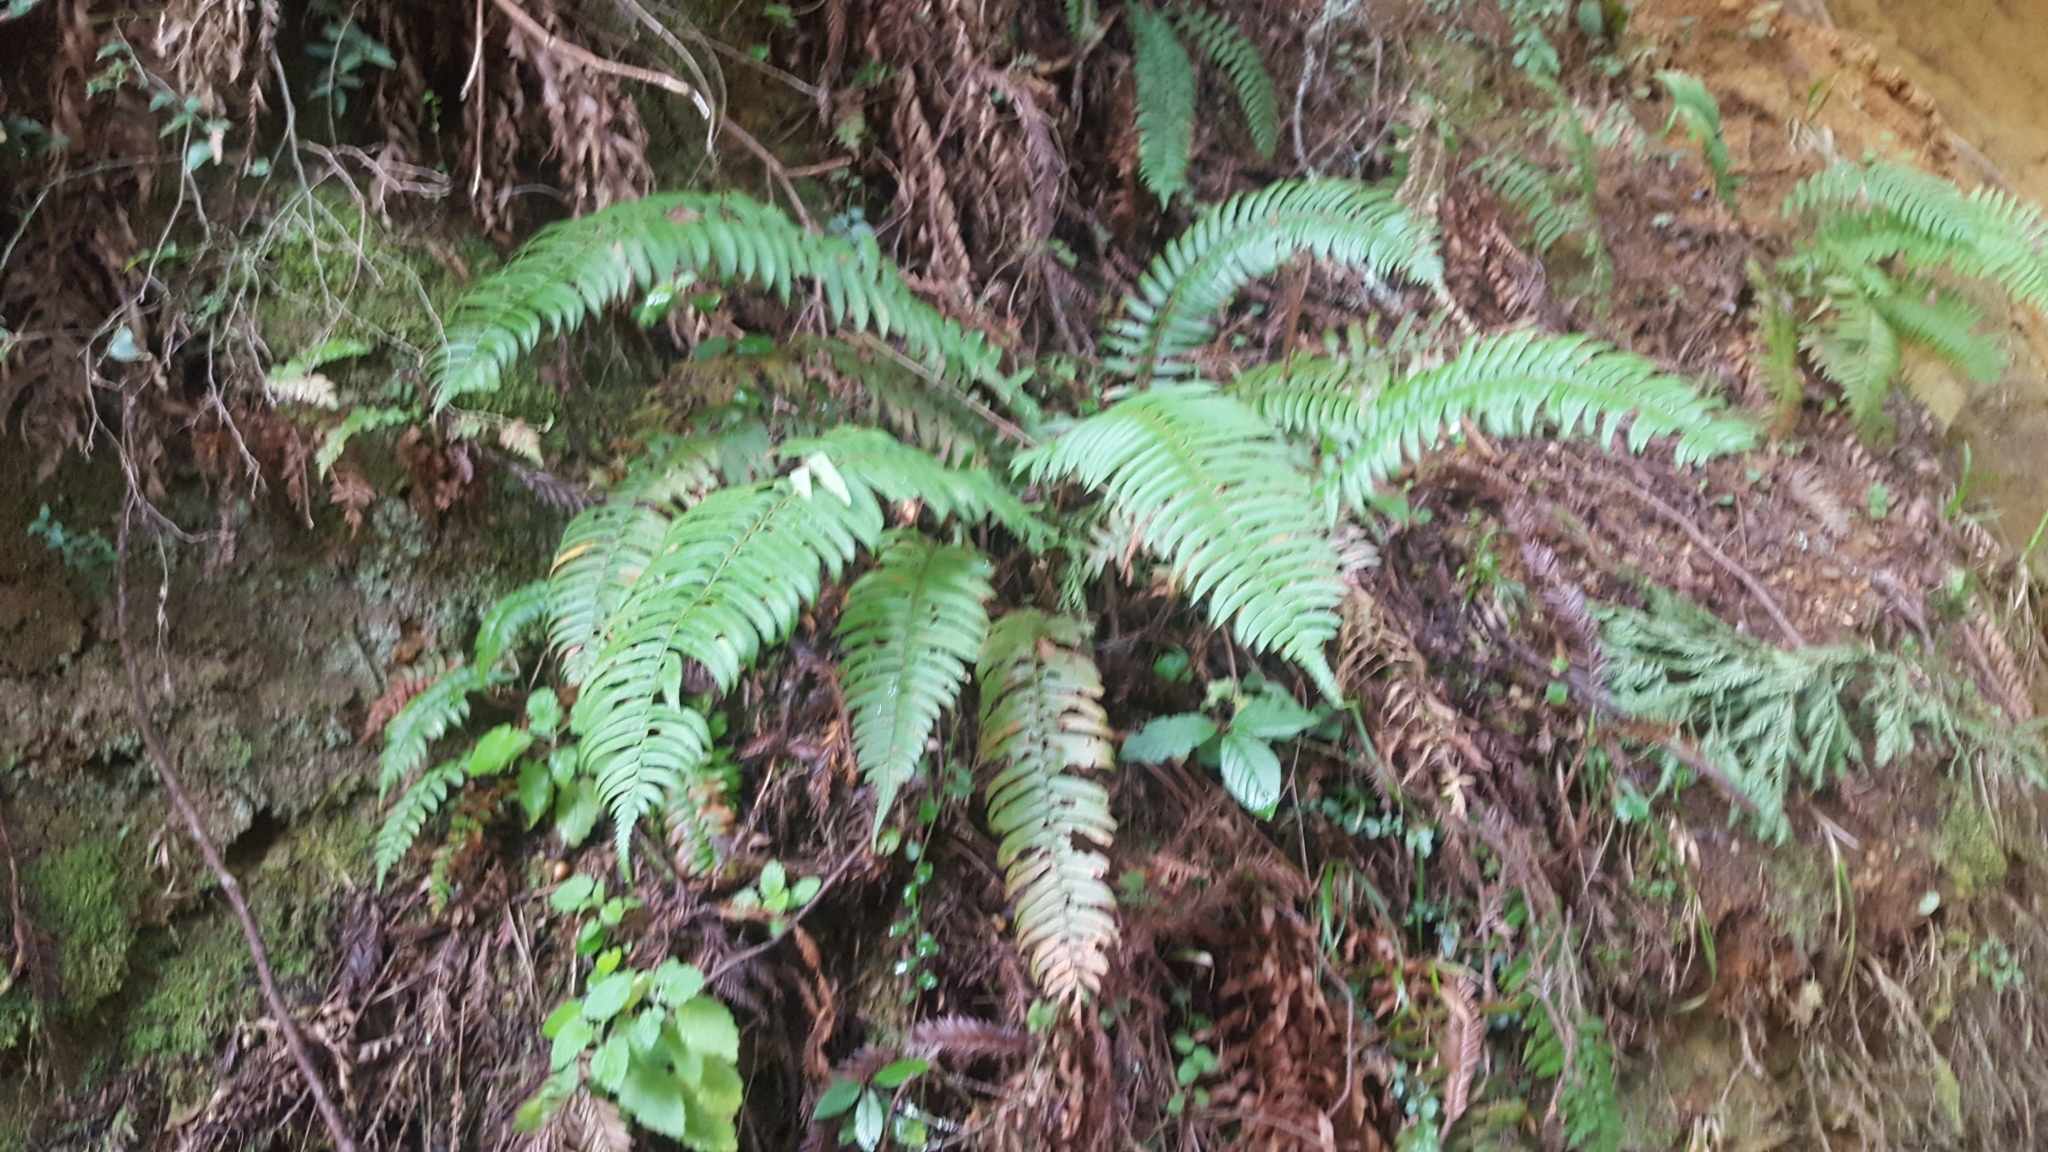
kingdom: Plantae
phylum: Tracheophyta
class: Polypodiopsida
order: Polypodiales
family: Dryopteridaceae
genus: Polystichum
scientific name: Polystichum munitum
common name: Western sword-fern
